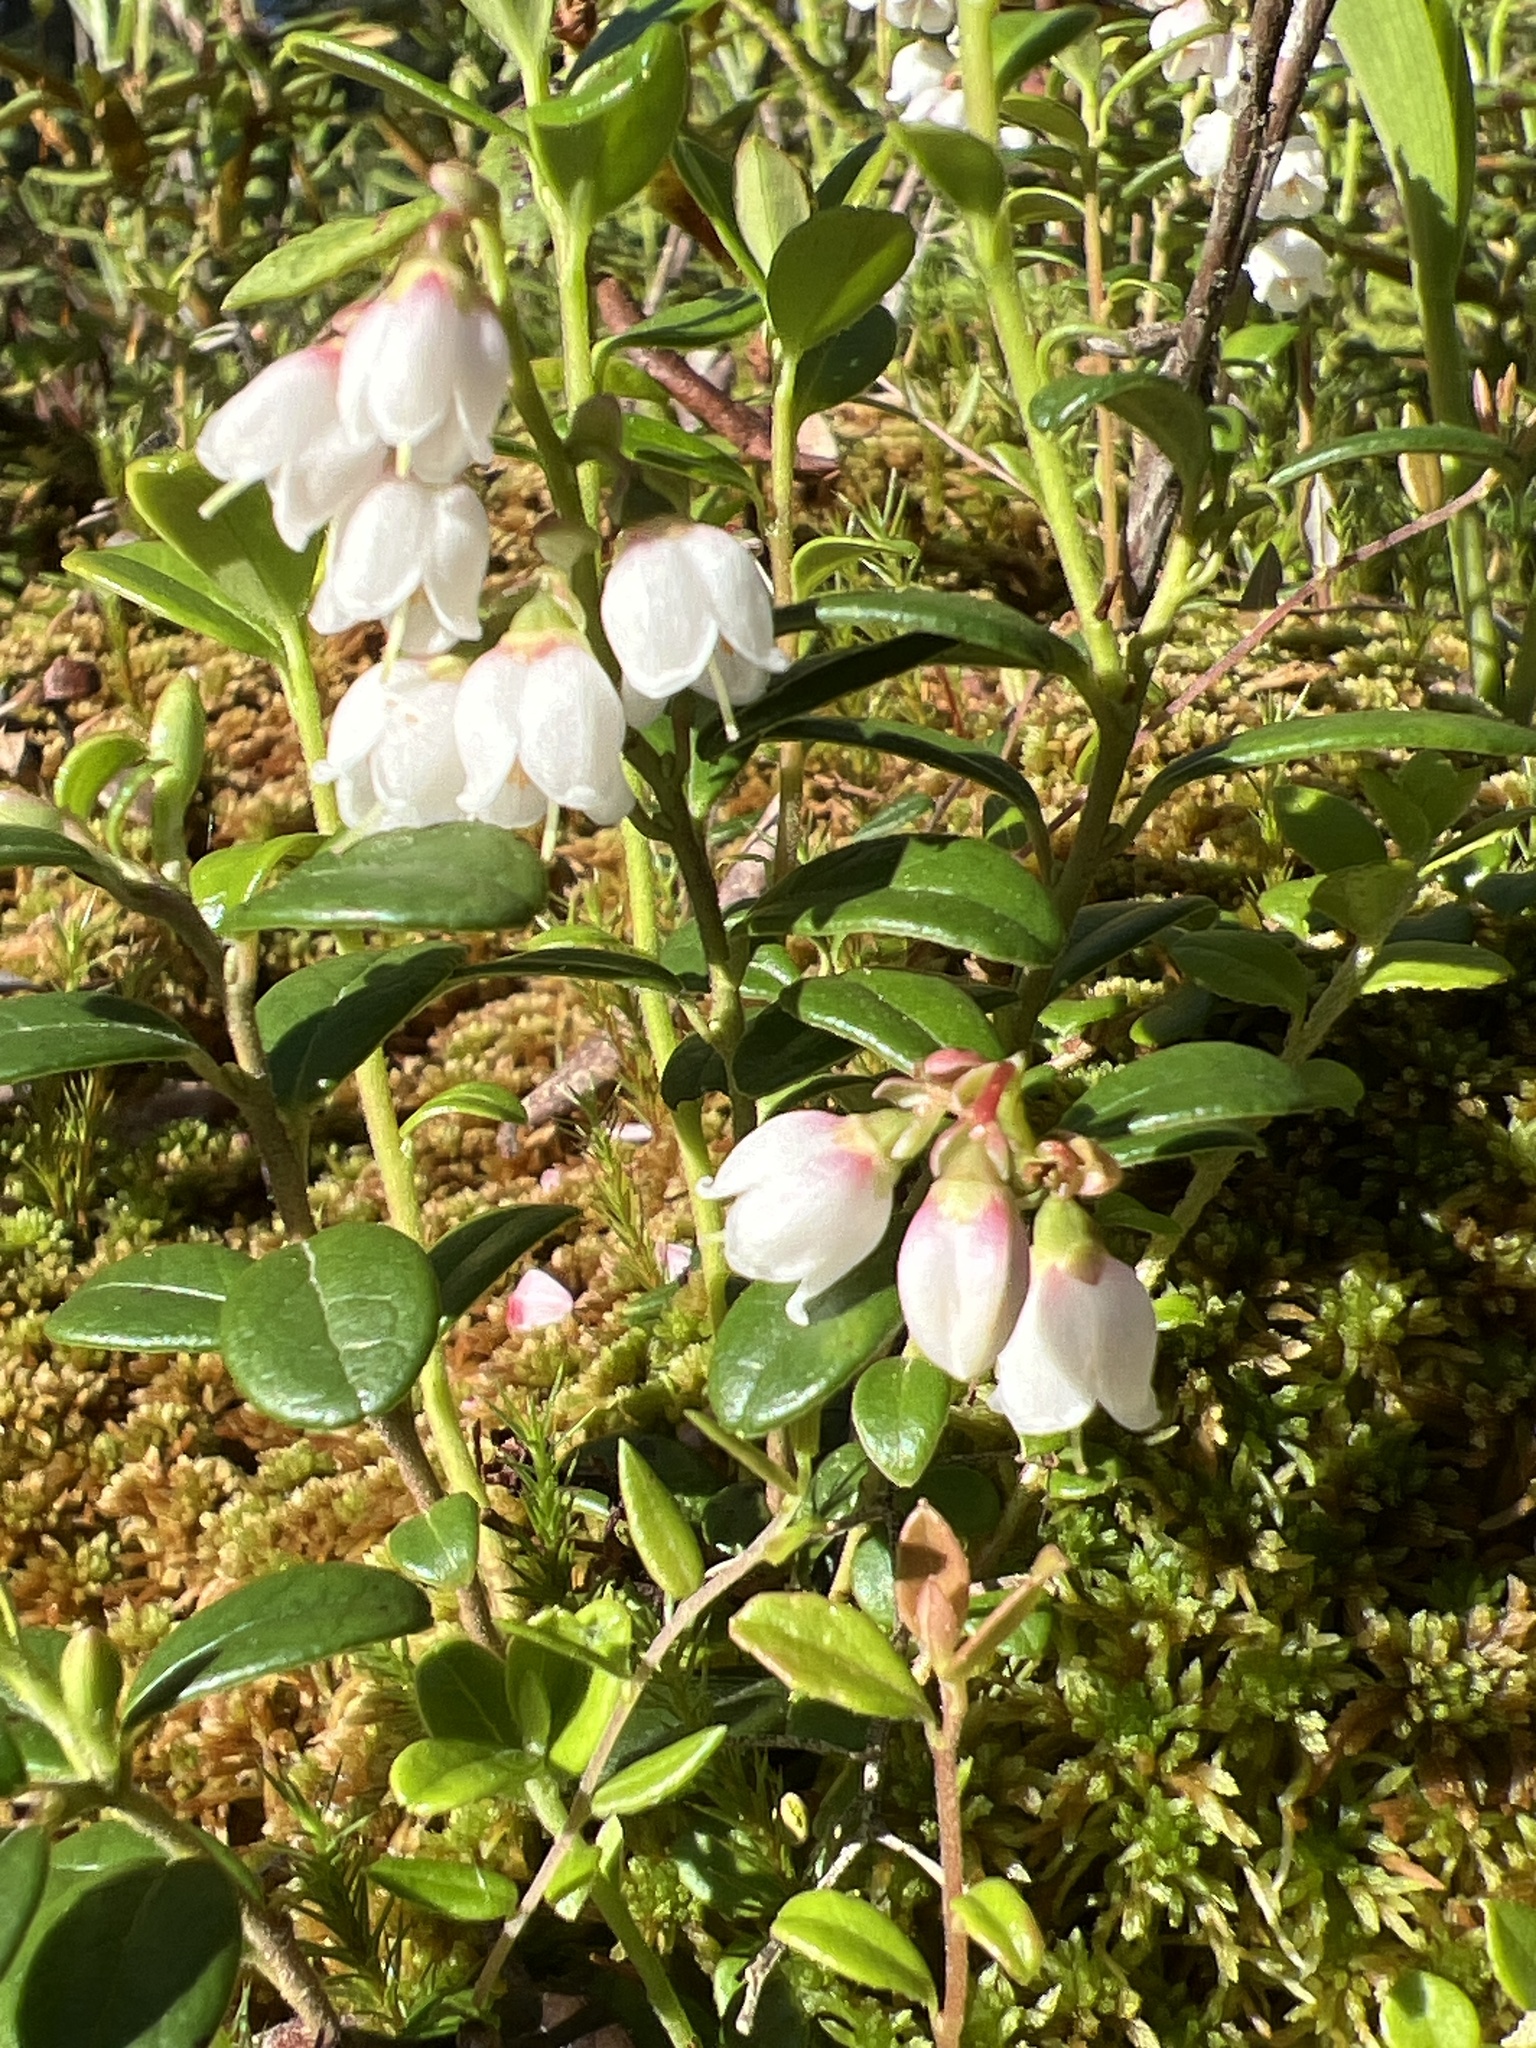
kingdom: Plantae
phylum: Tracheophyta
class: Magnoliopsida
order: Ericales
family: Ericaceae
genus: Vaccinium
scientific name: Vaccinium vitis-idaea
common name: Cowberry
